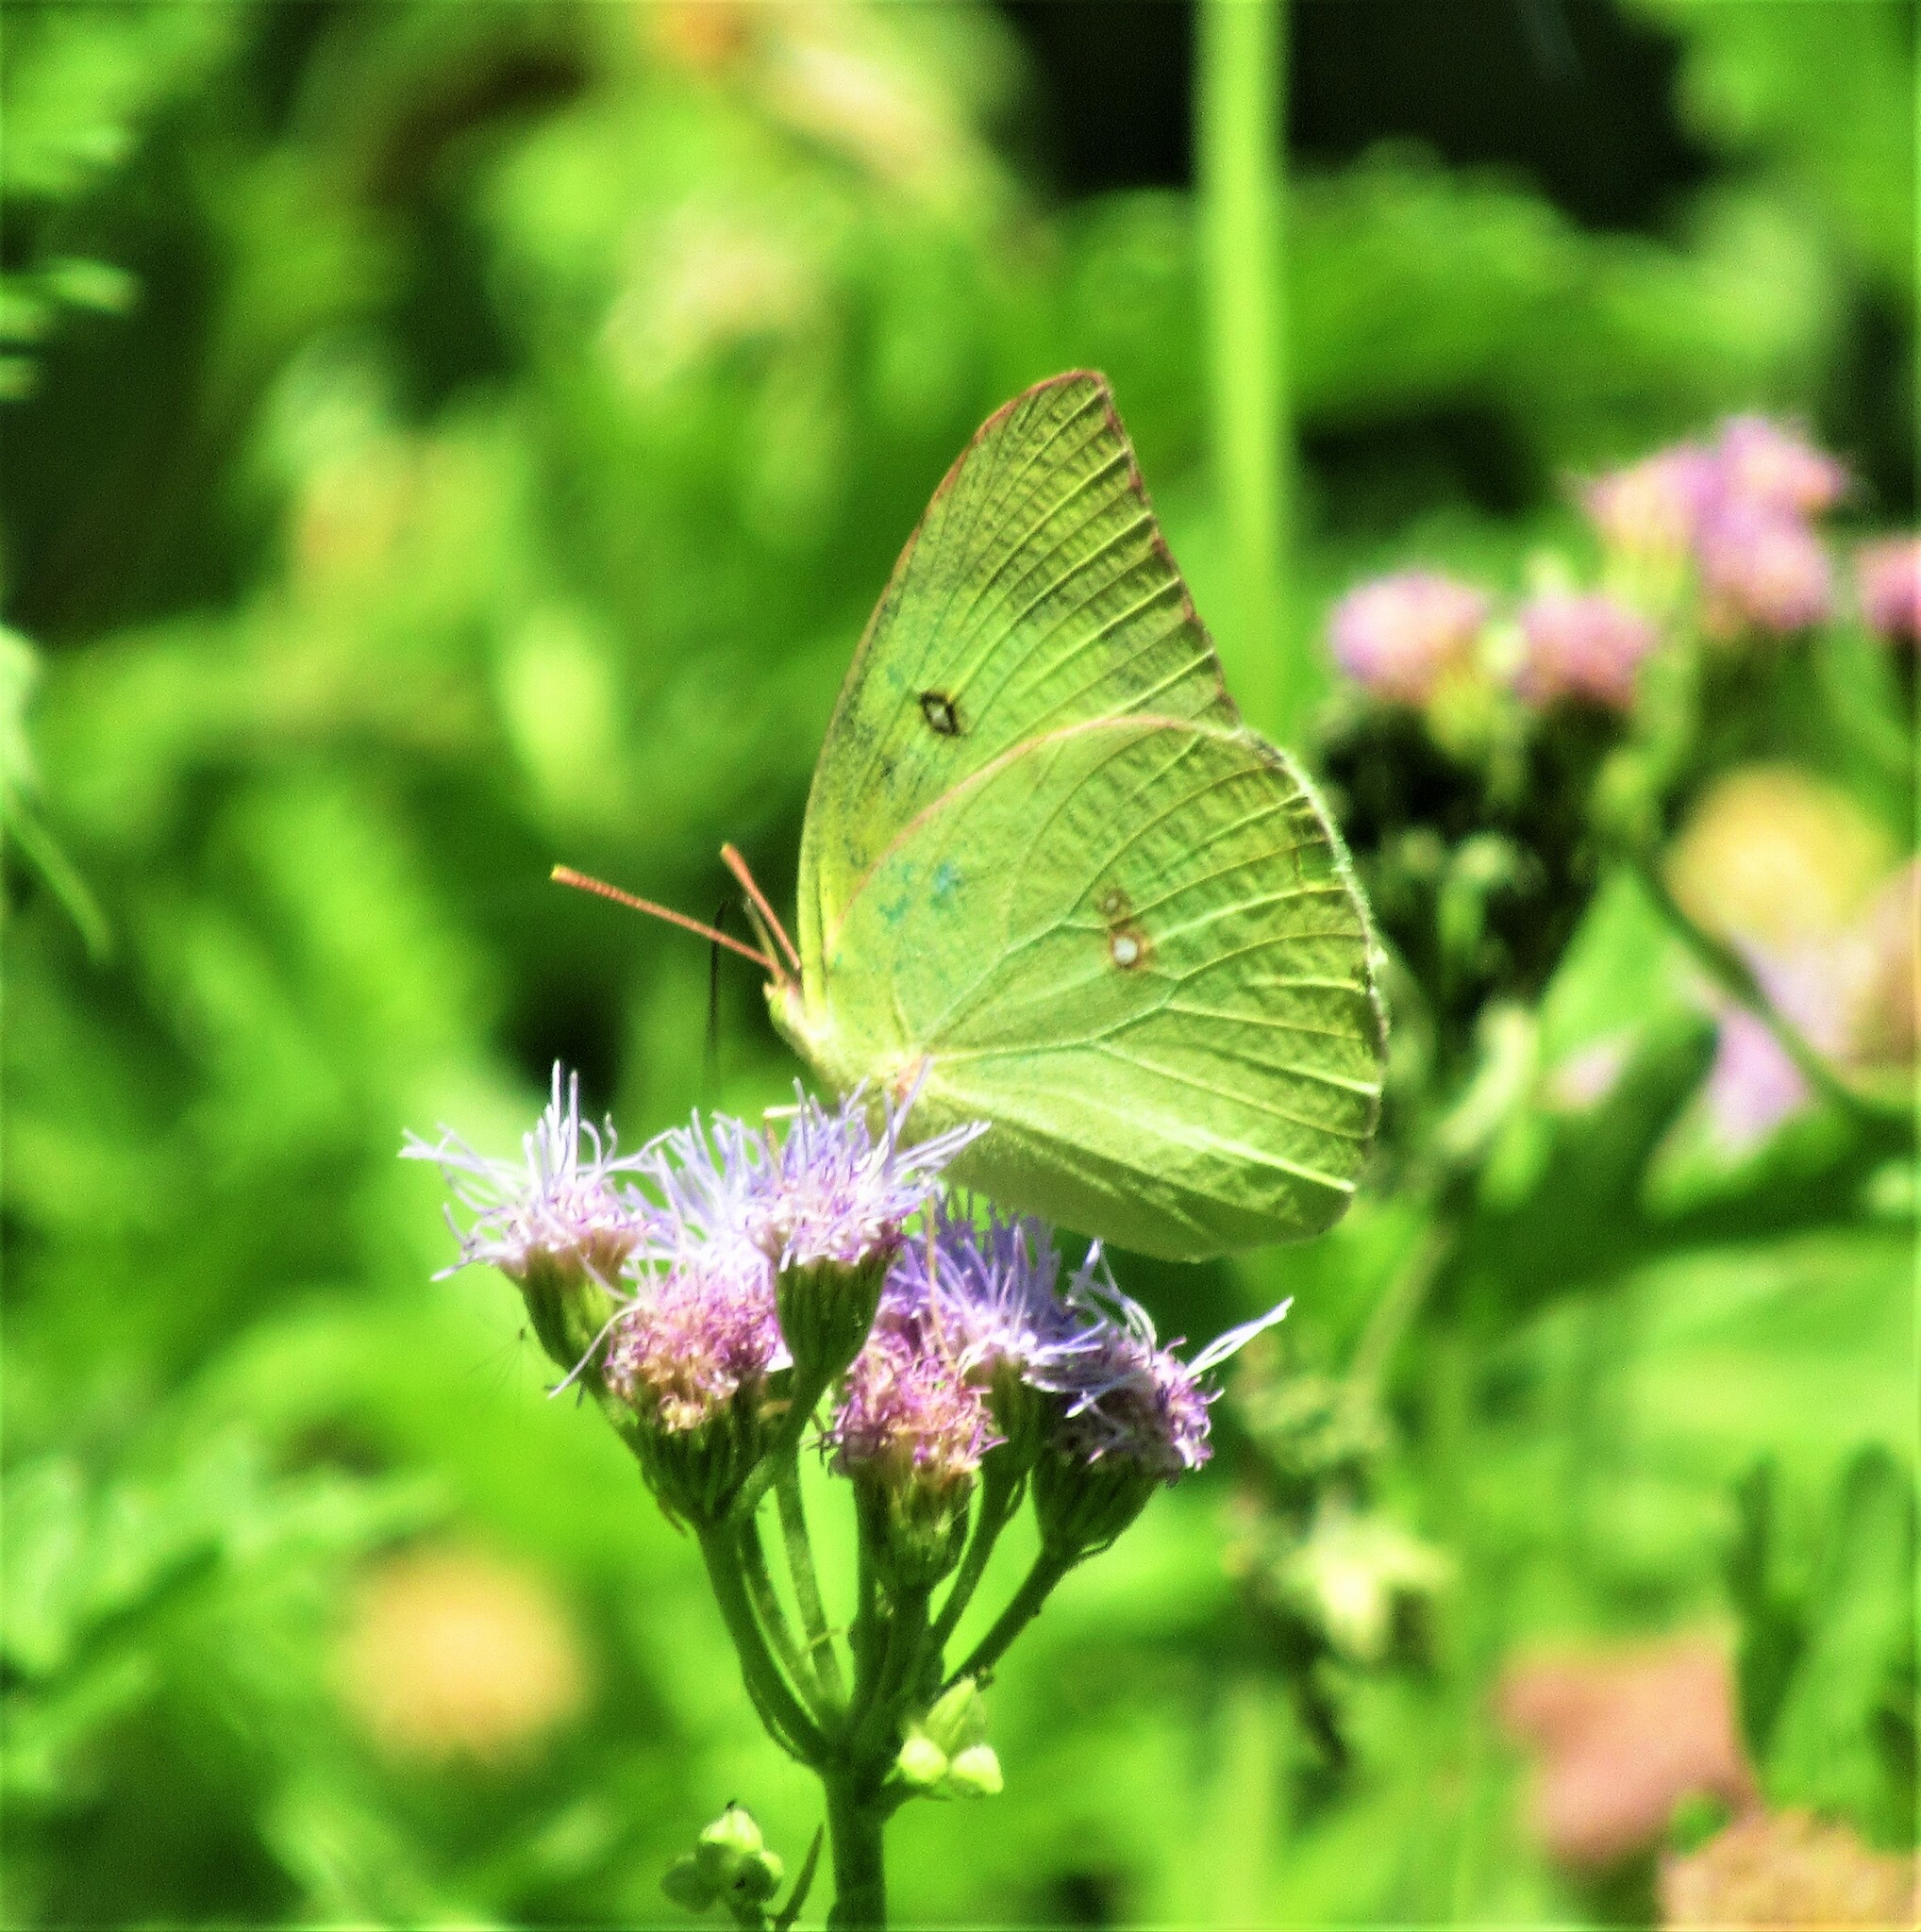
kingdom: Animalia
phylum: Arthropoda
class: Insecta
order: Lepidoptera
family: Pieridae
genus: Zerene
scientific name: Zerene cesonia
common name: Southern dogface
